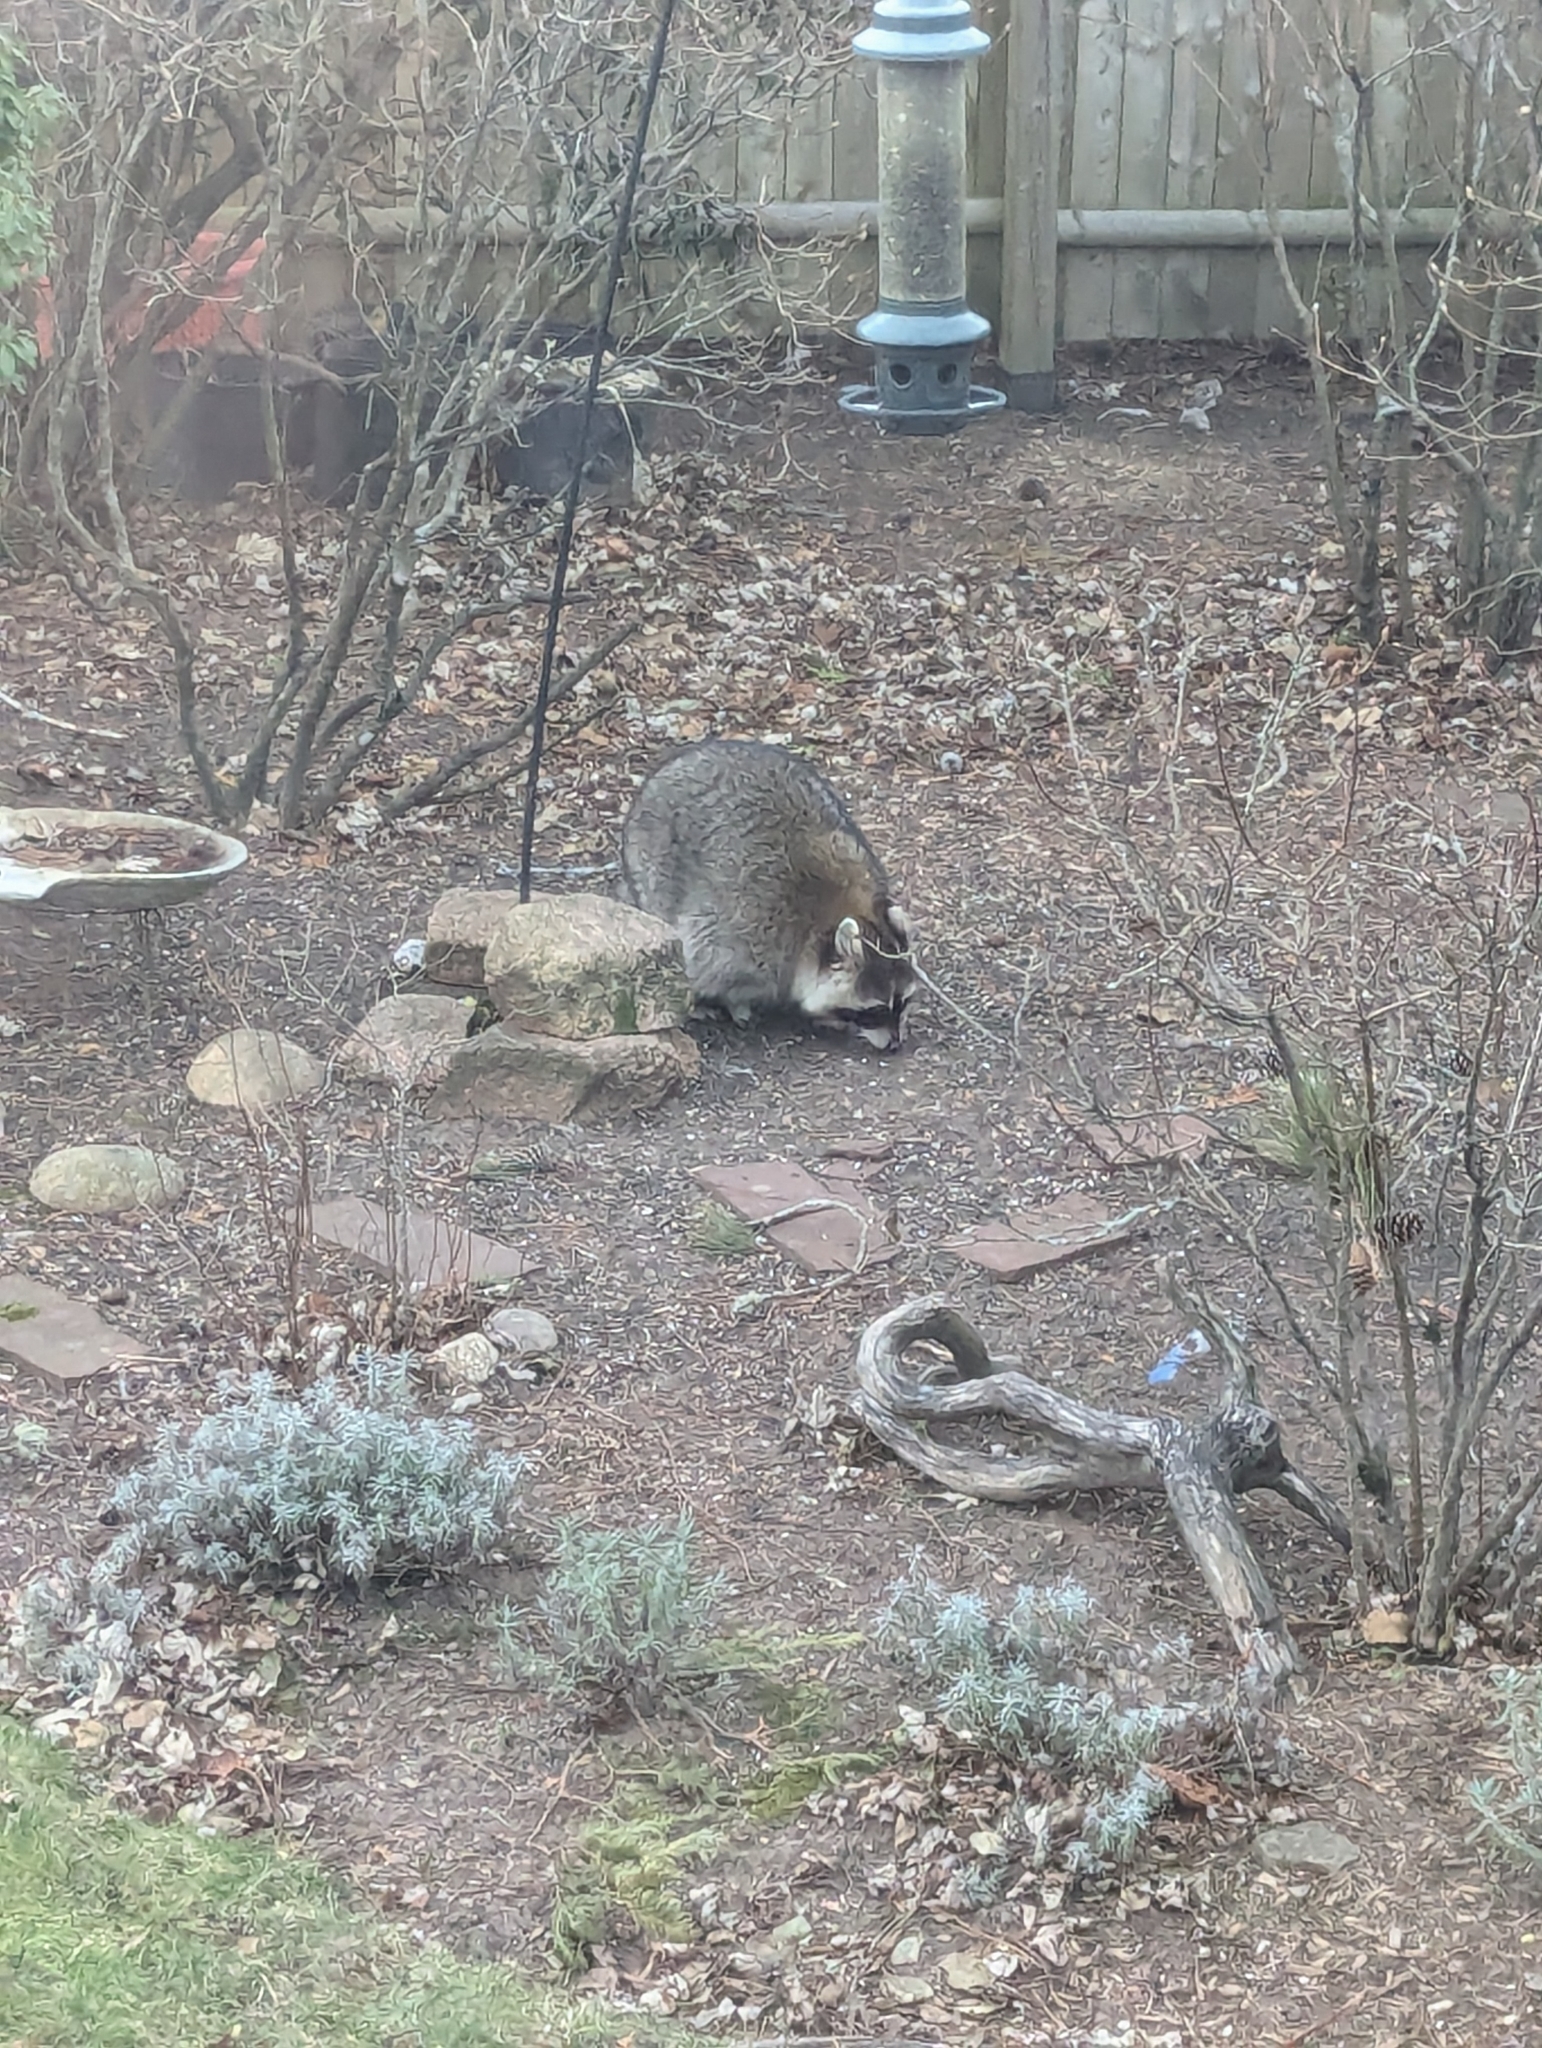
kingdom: Animalia
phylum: Chordata
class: Mammalia
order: Carnivora
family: Procyonidae
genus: Procyon
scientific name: Procyon lotor
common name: Raccoon
